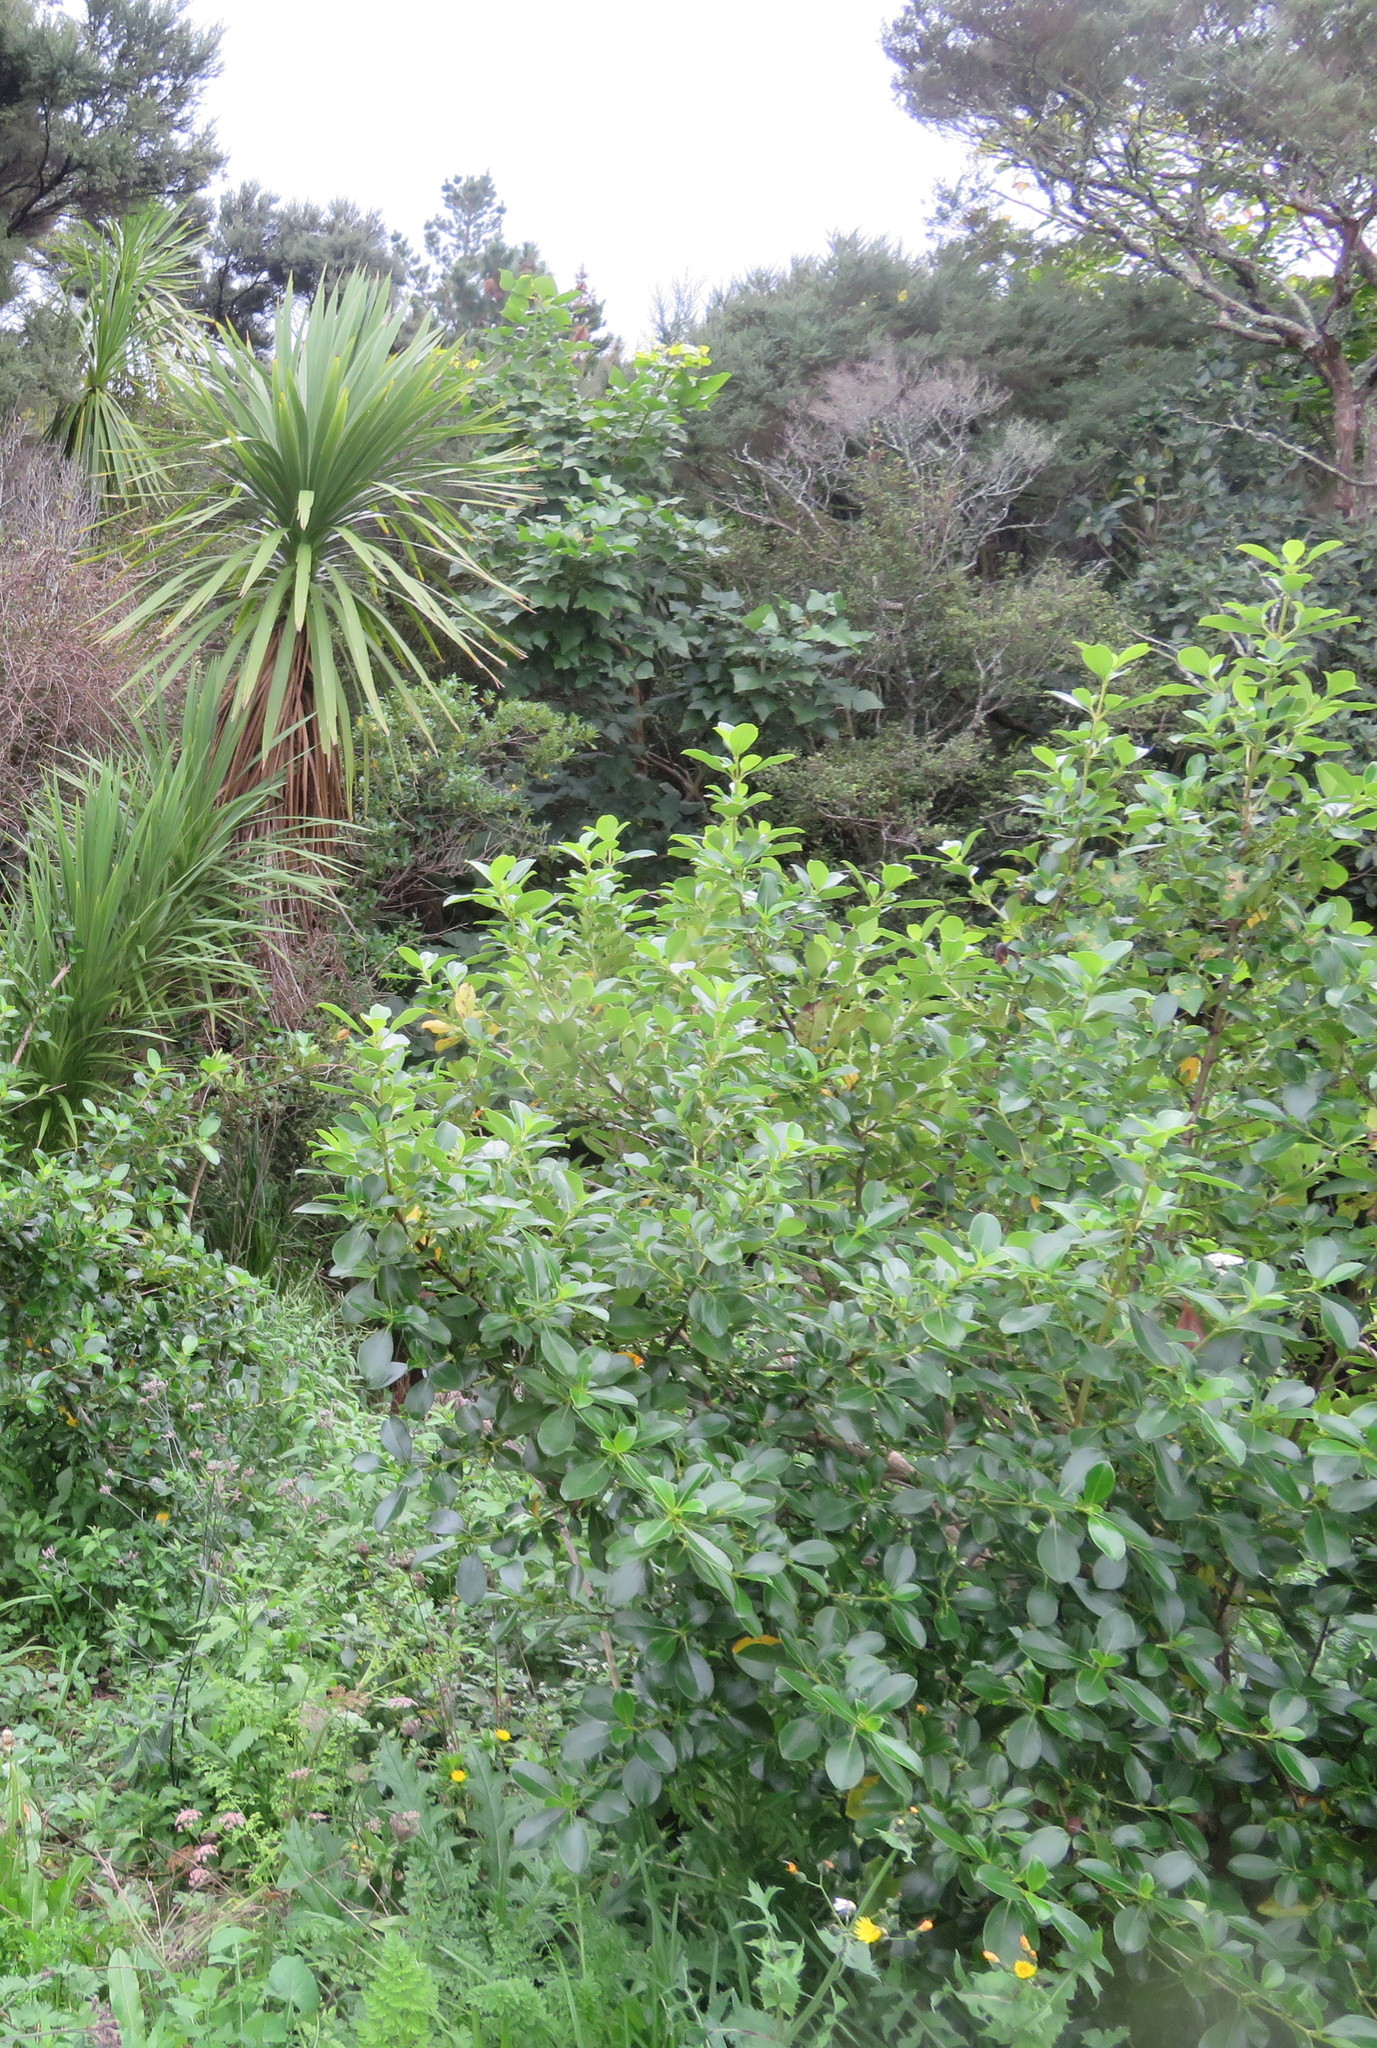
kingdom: Plantae
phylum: Tracheophyta
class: Liliopsida
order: Asparagales
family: Asparagaceae
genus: Cordyline
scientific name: Cordyline australis
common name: Cabbage-palm
